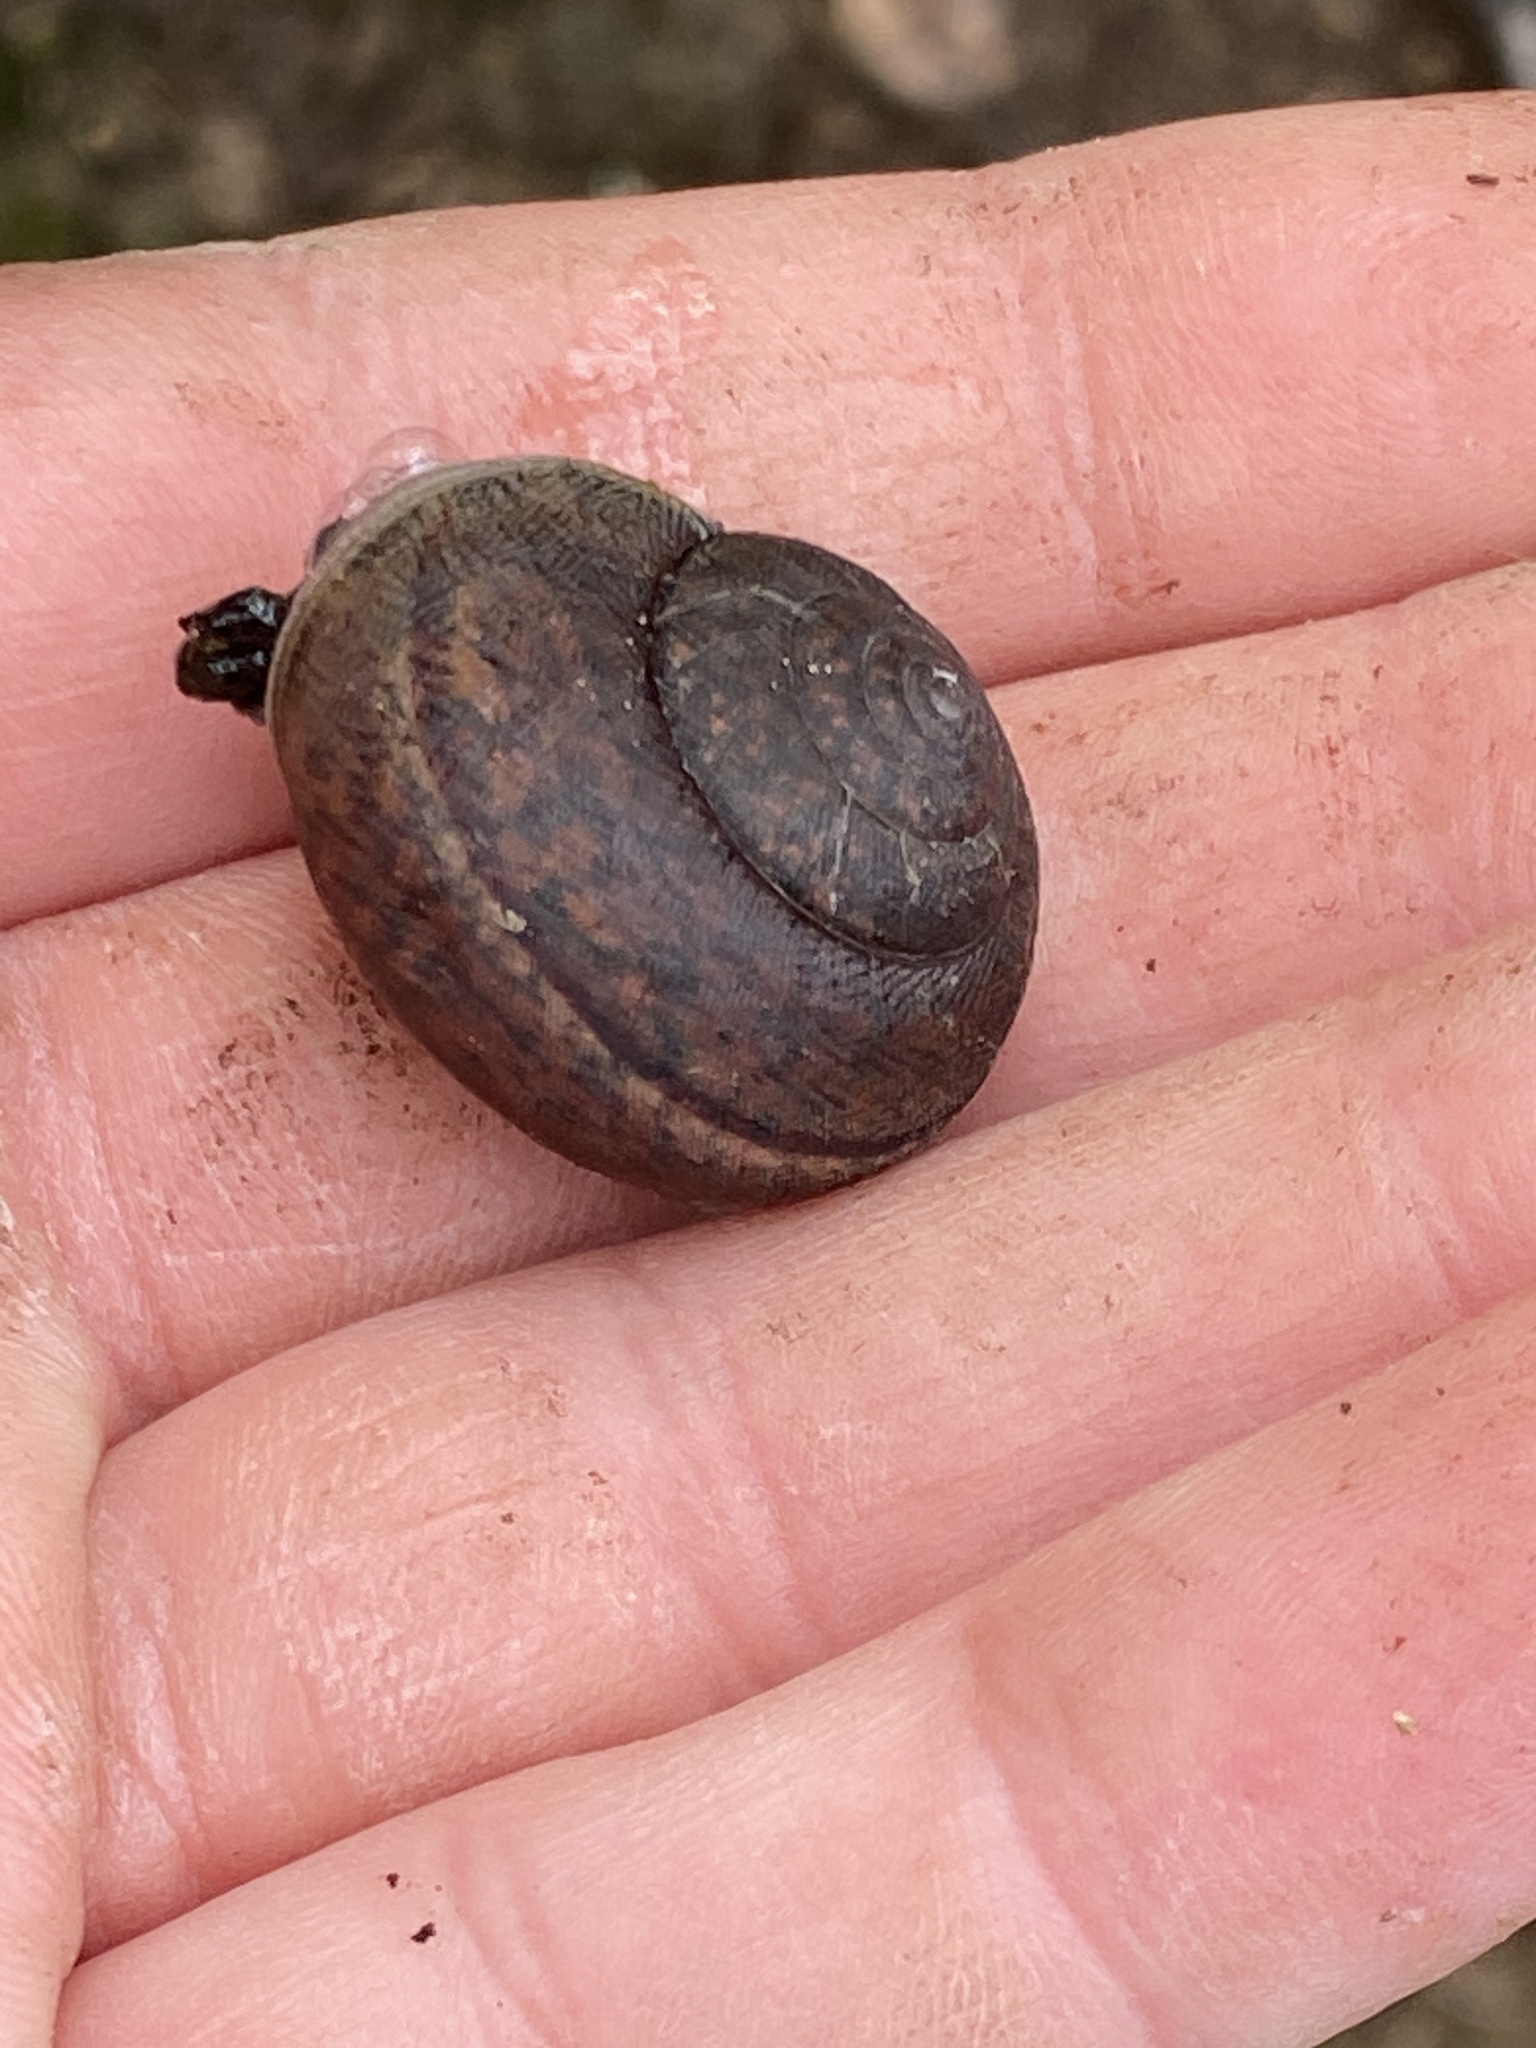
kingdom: Animalia
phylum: Mollusca
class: Gastropoda
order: Stylommatophora
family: Xanthonychidae
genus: Helminthoglypta
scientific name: Helminthoglypta nickliniana
